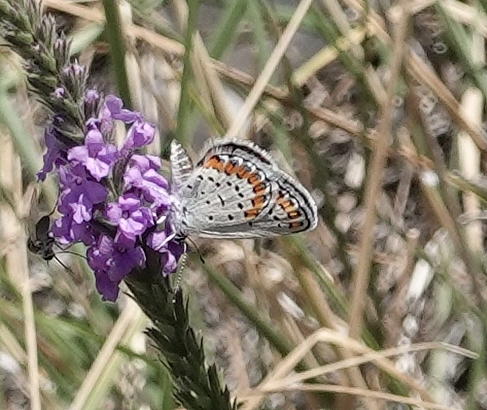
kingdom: Animalia
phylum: Arthropoda
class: Insecta
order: Lepidoptera
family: Lycaenidae
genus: Lycaeides
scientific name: Lycaeides melissa
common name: Melissa blue
